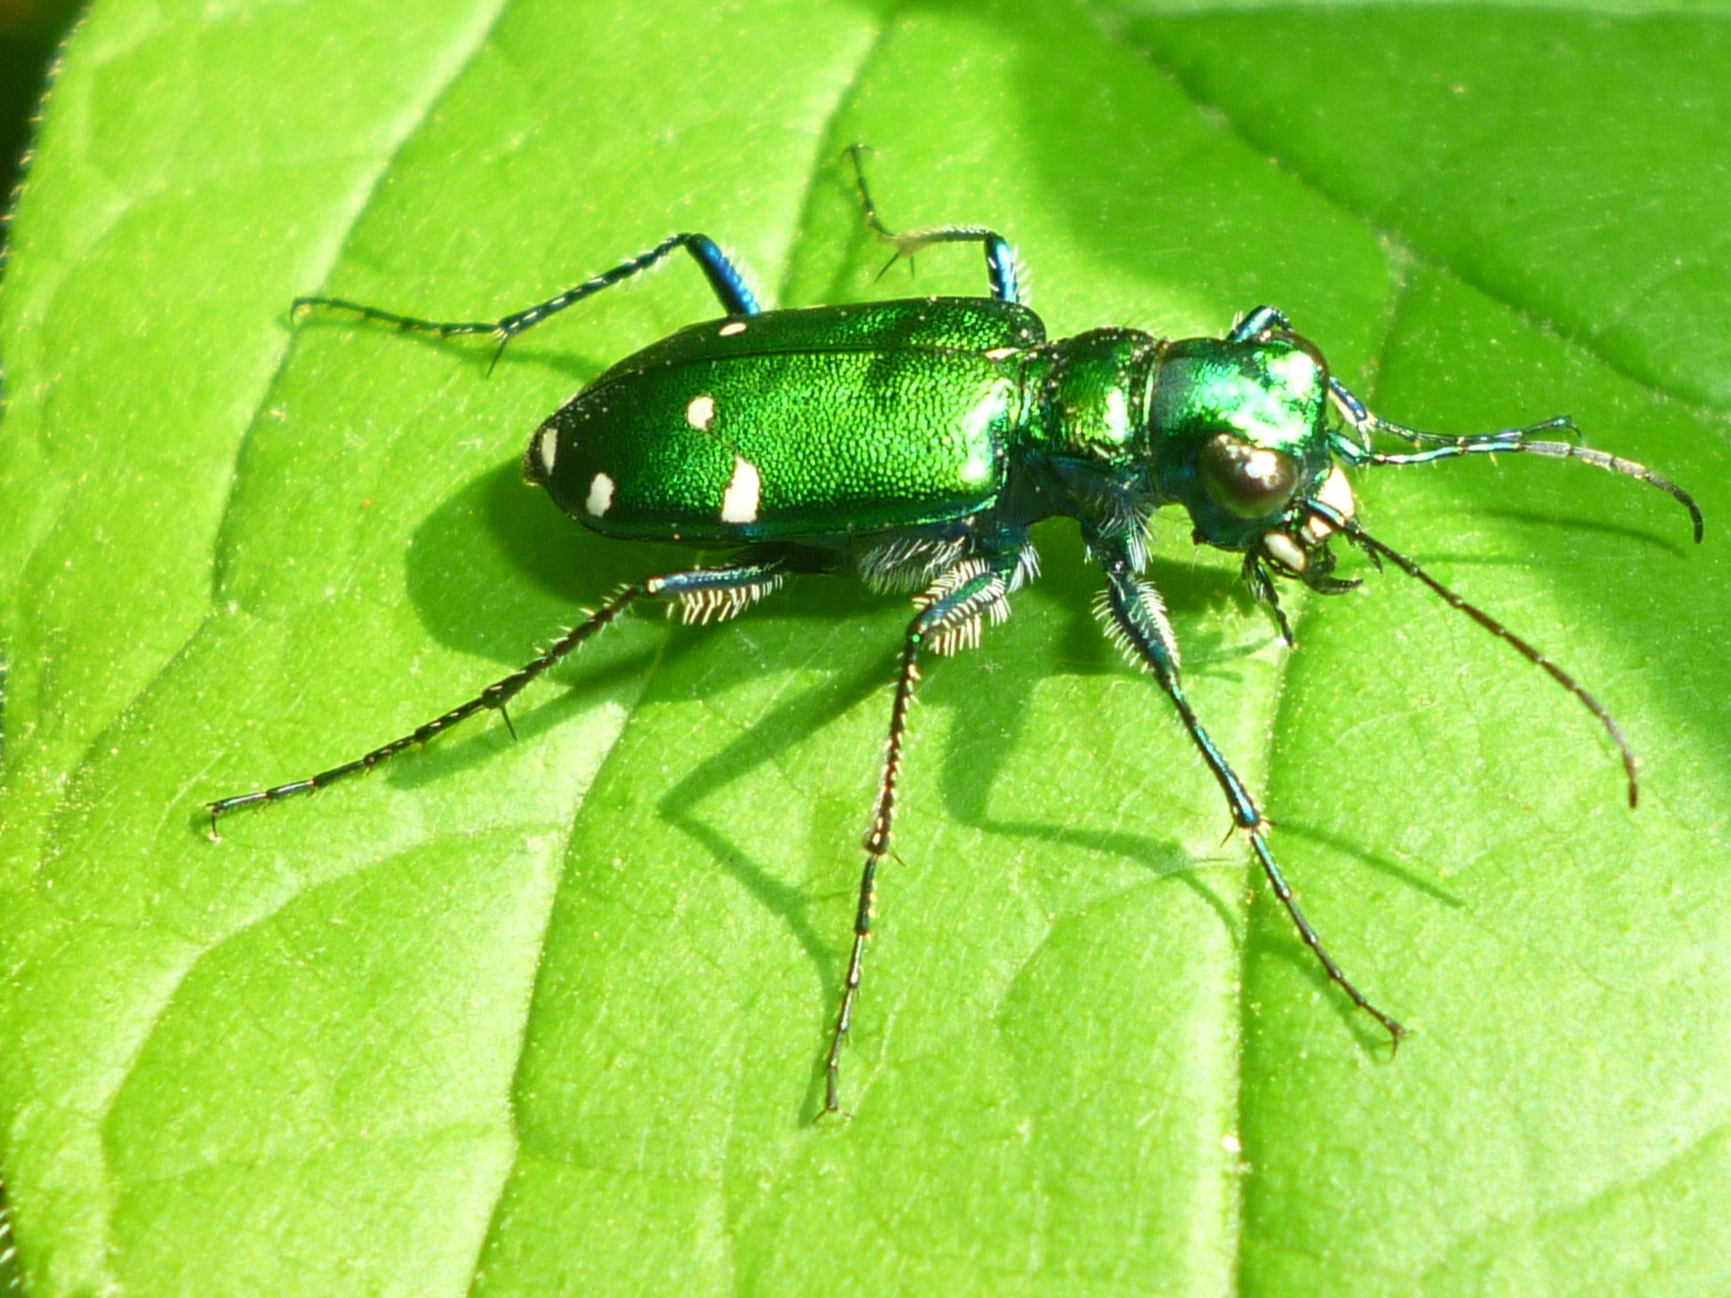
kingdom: Animalia
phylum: Arthropoda
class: Insecta
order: Coleoptera
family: Carabidae
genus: Cicindela
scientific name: Cicindela sexguttata
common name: Six-spotted tiger beetle
